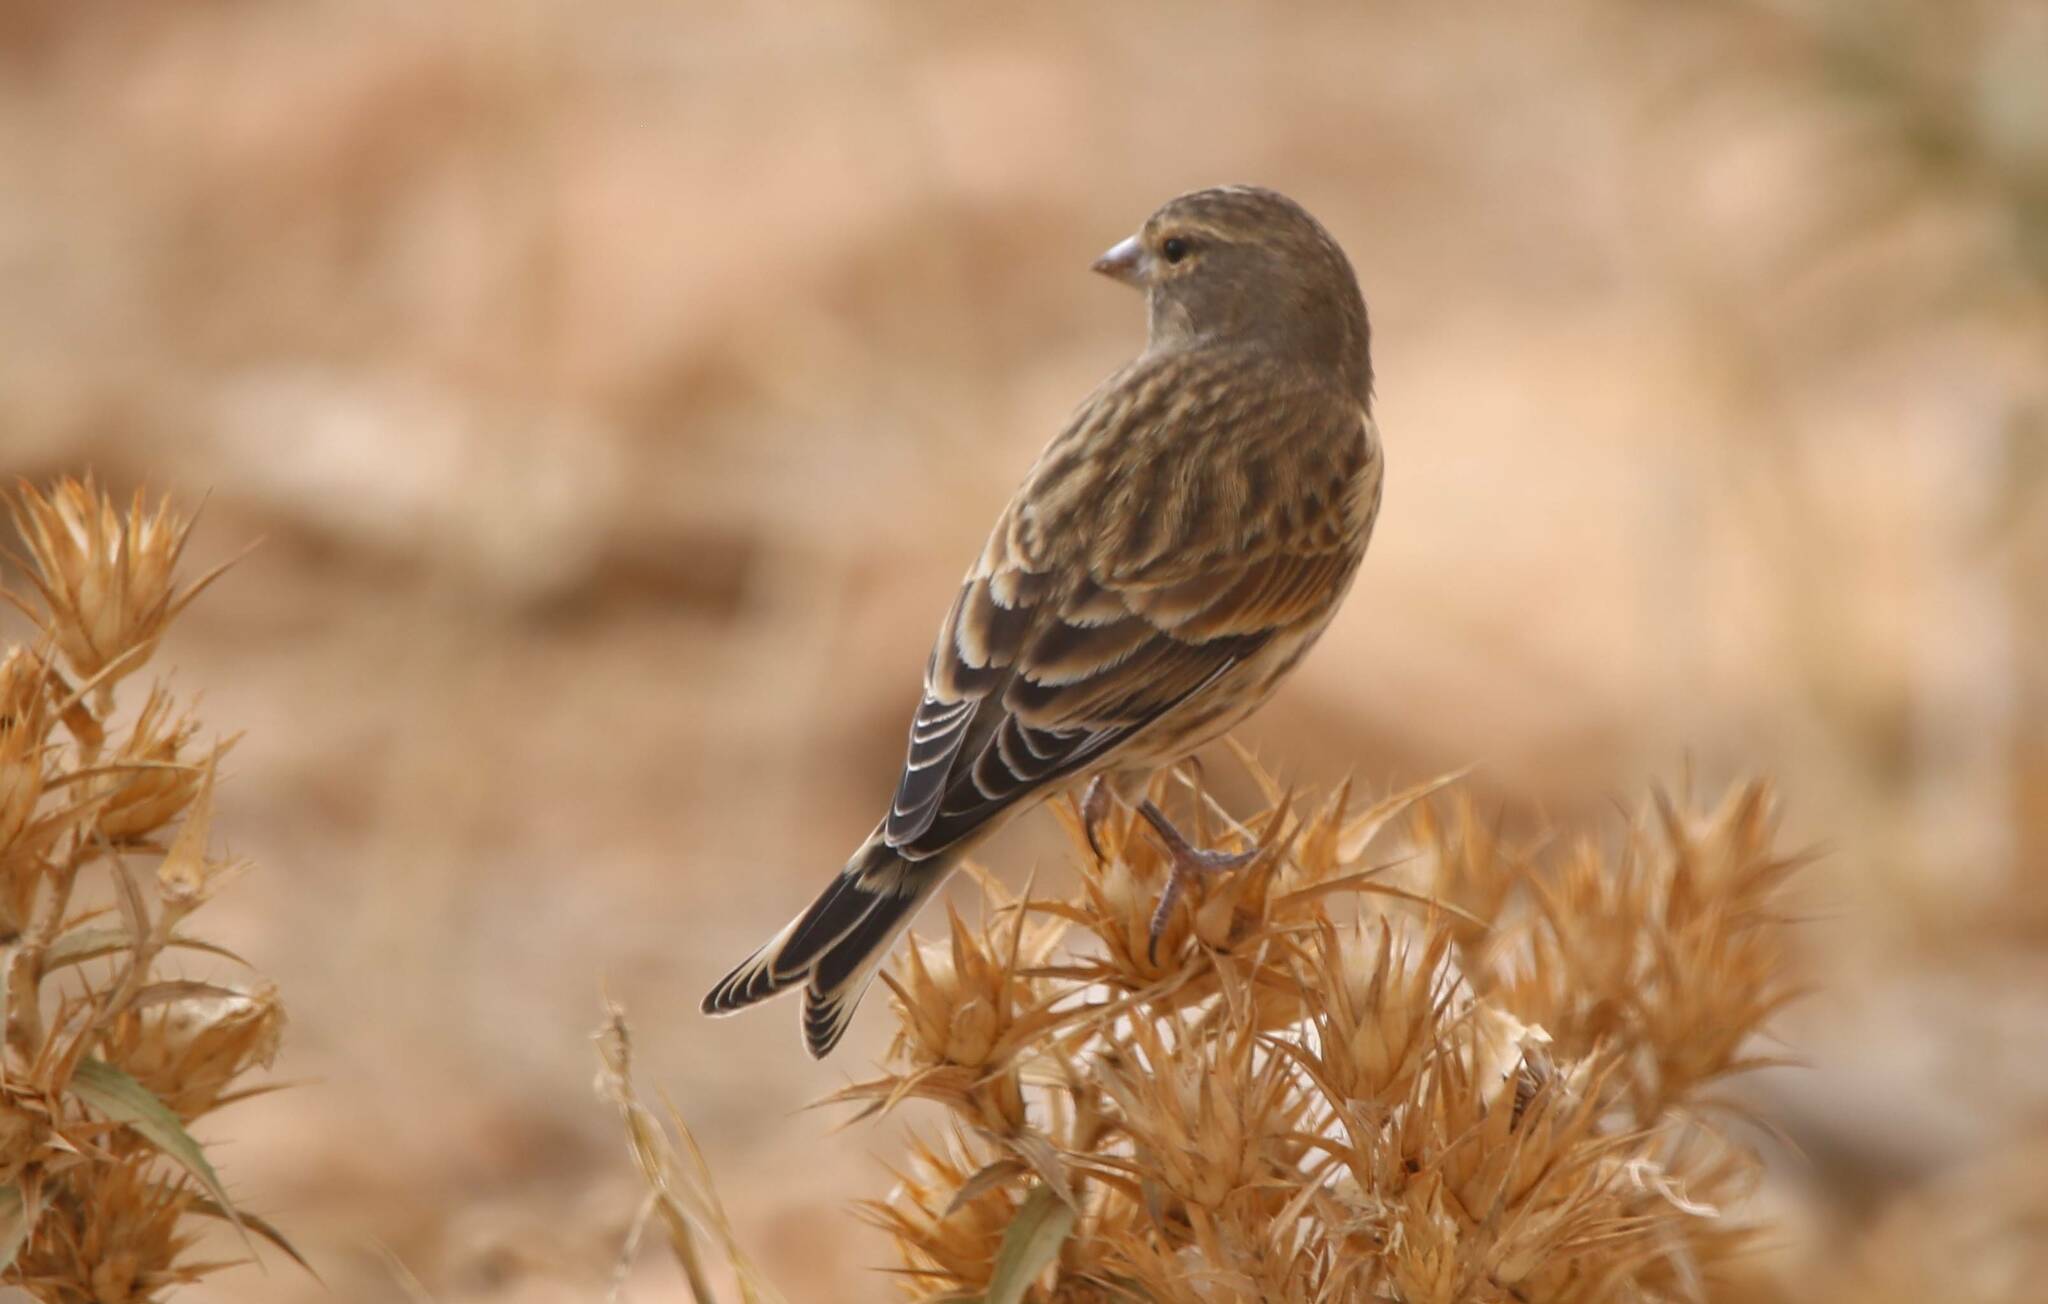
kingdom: Animalia
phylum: Chordata
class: Aves
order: Passeriformes
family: Fringillidae
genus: Linaria
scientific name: Linaria cannabina
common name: Common linnet
